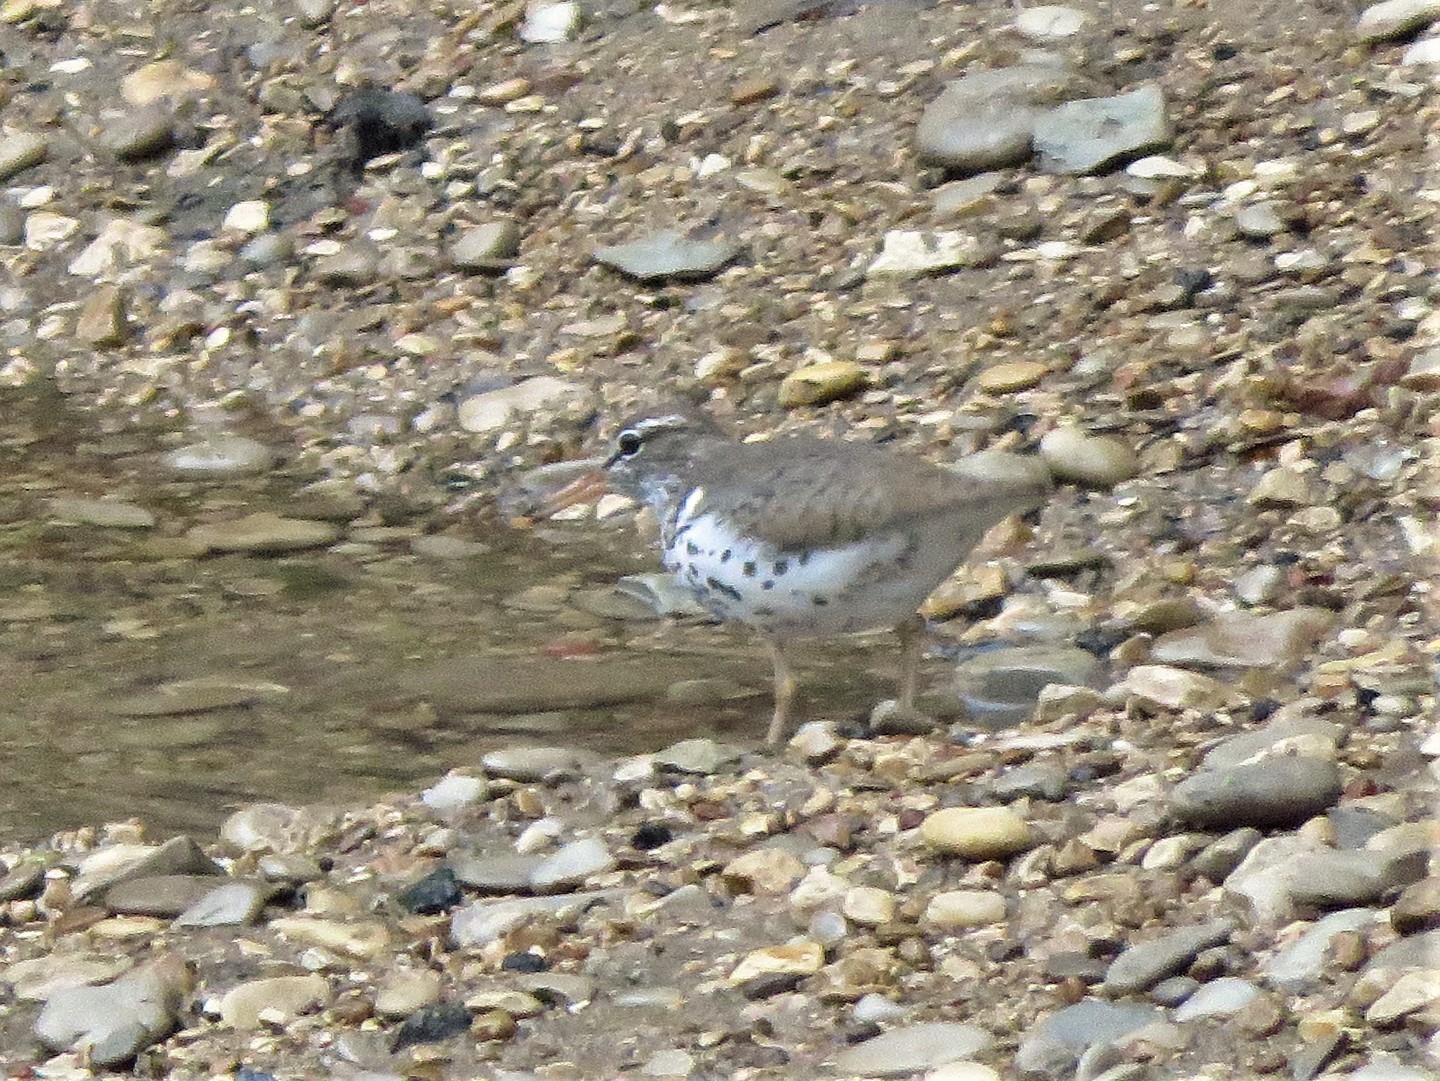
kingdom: Animalia
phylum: Chordata
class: Aves
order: Charadriiformes
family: Scolopacidae
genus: Actitis
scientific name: Actitis macularius
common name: Spotted sandpiper
